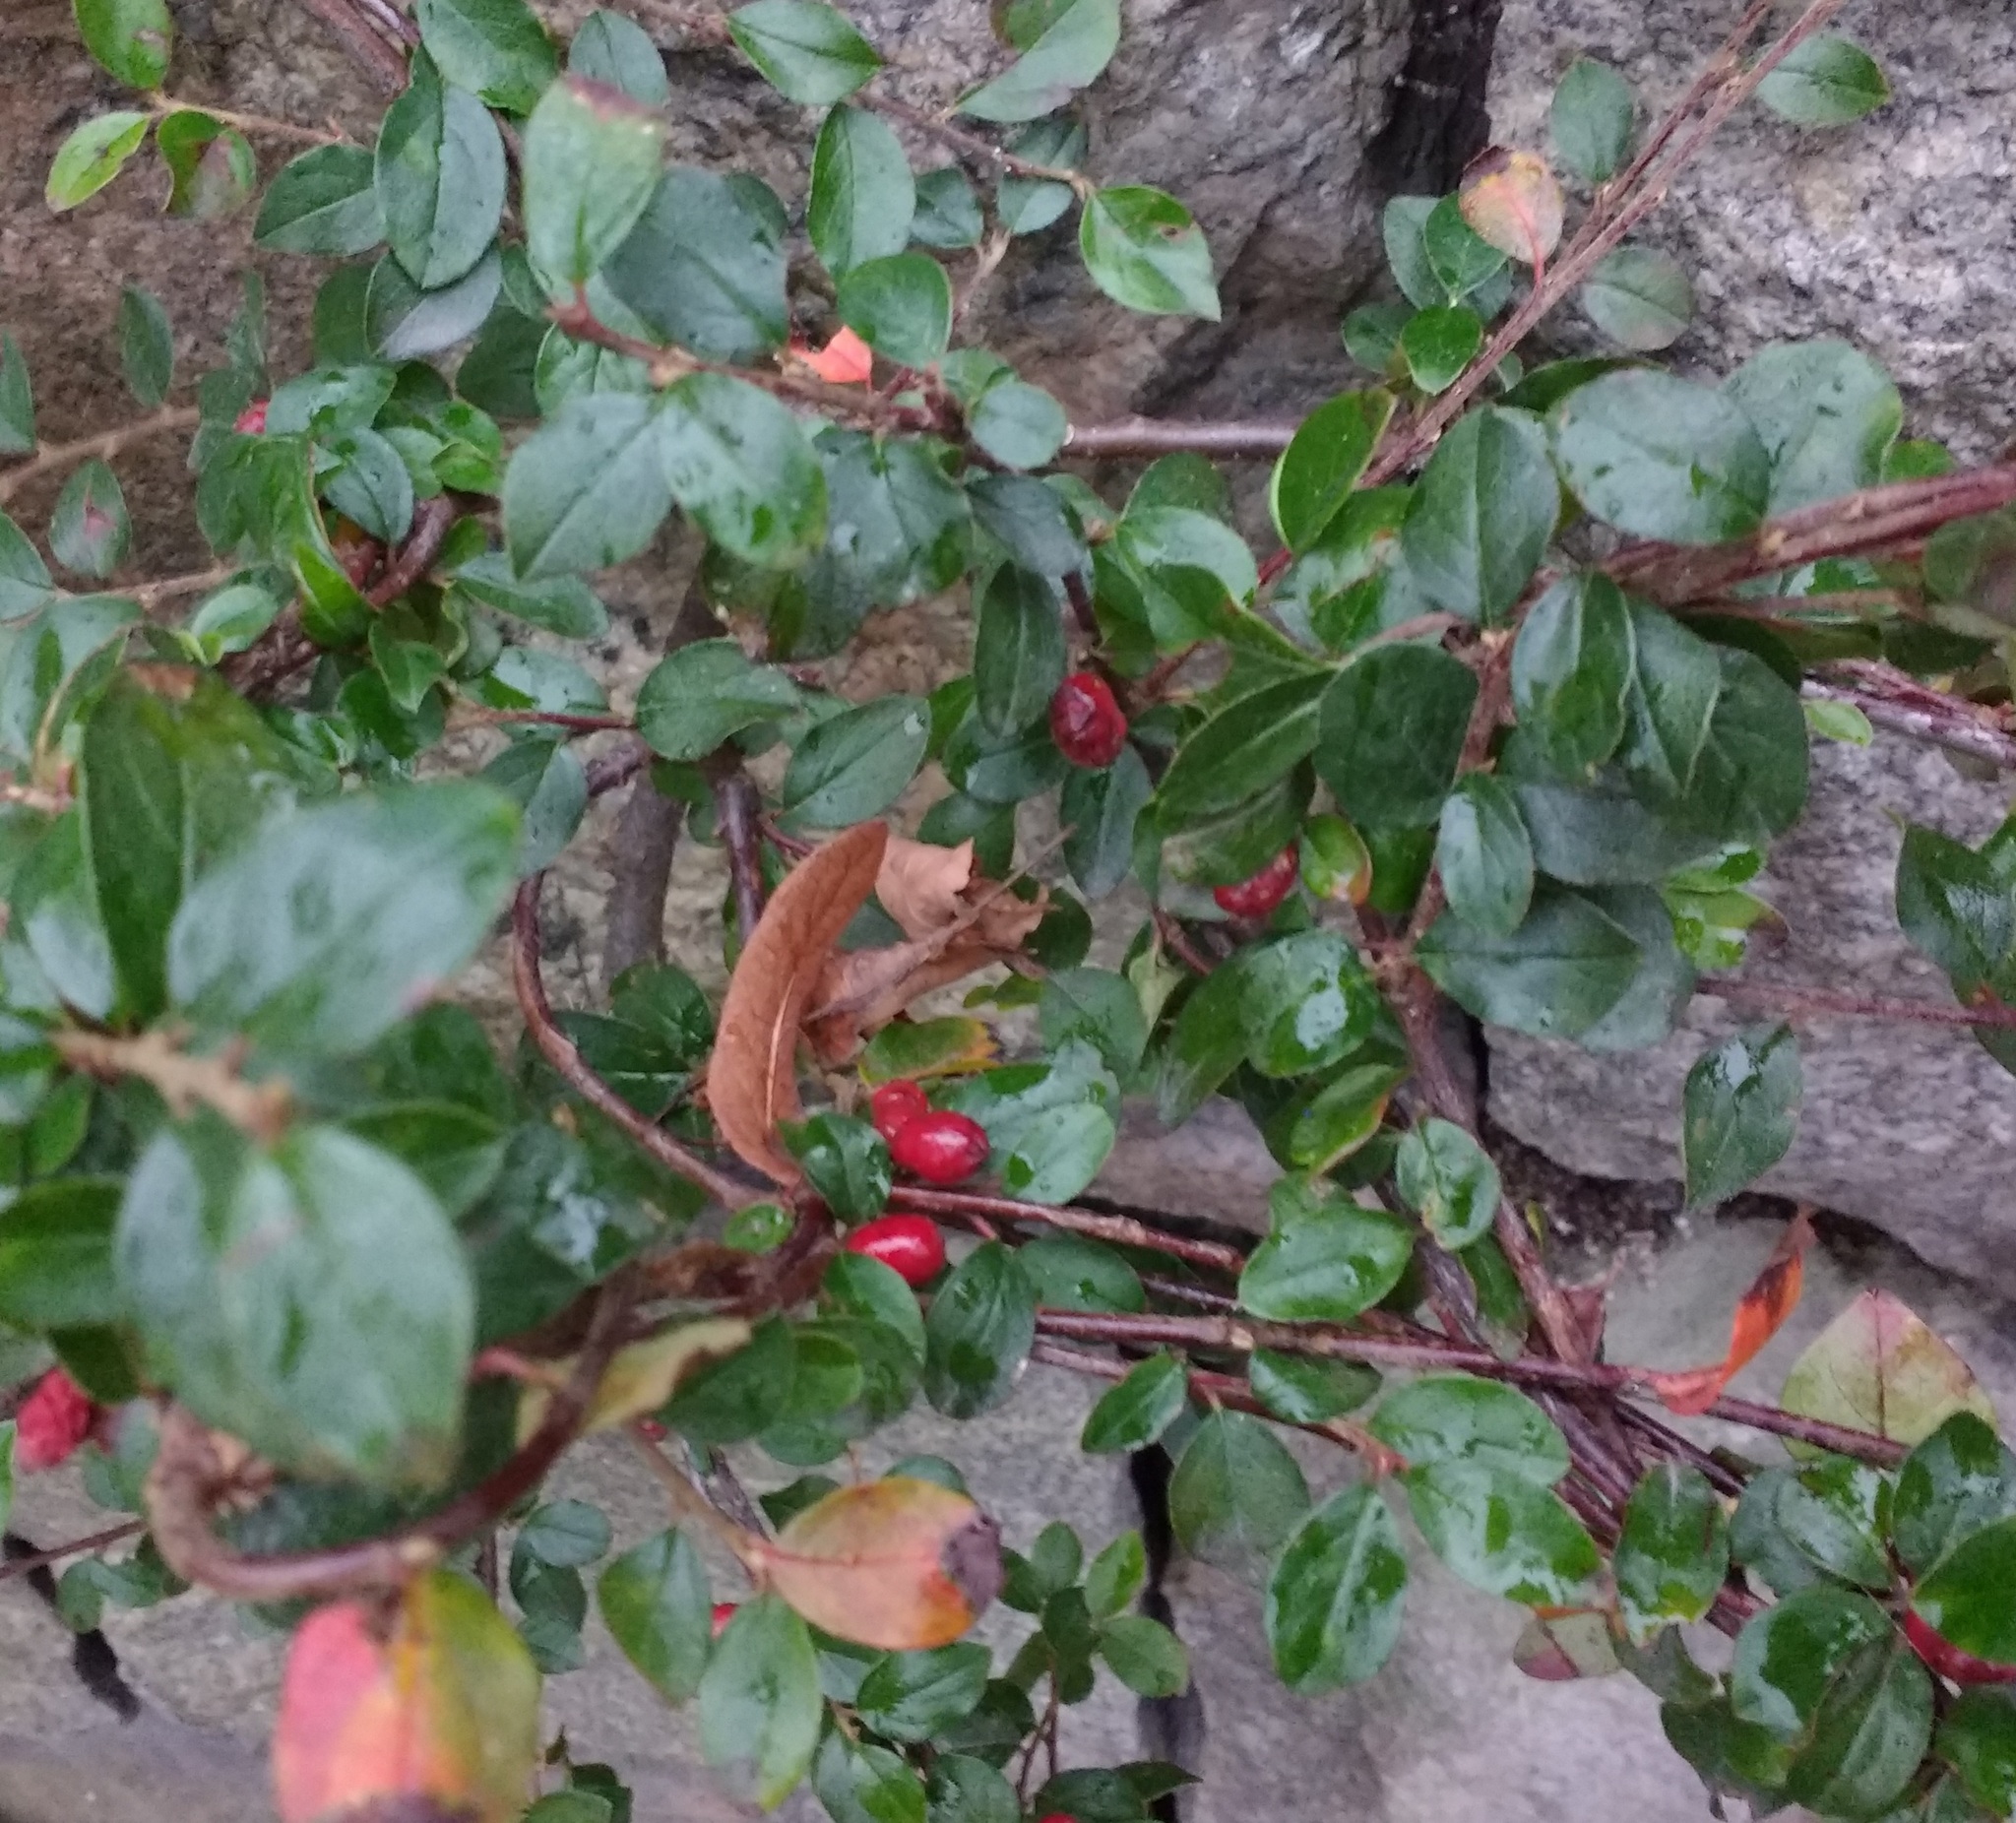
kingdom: Plantae
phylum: Tracheophyta
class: Magnoliopsida
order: Rosales
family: Rosaceae
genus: Cotoneaster
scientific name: Cotoneaster divaricatus
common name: Spreading cotoneaster
